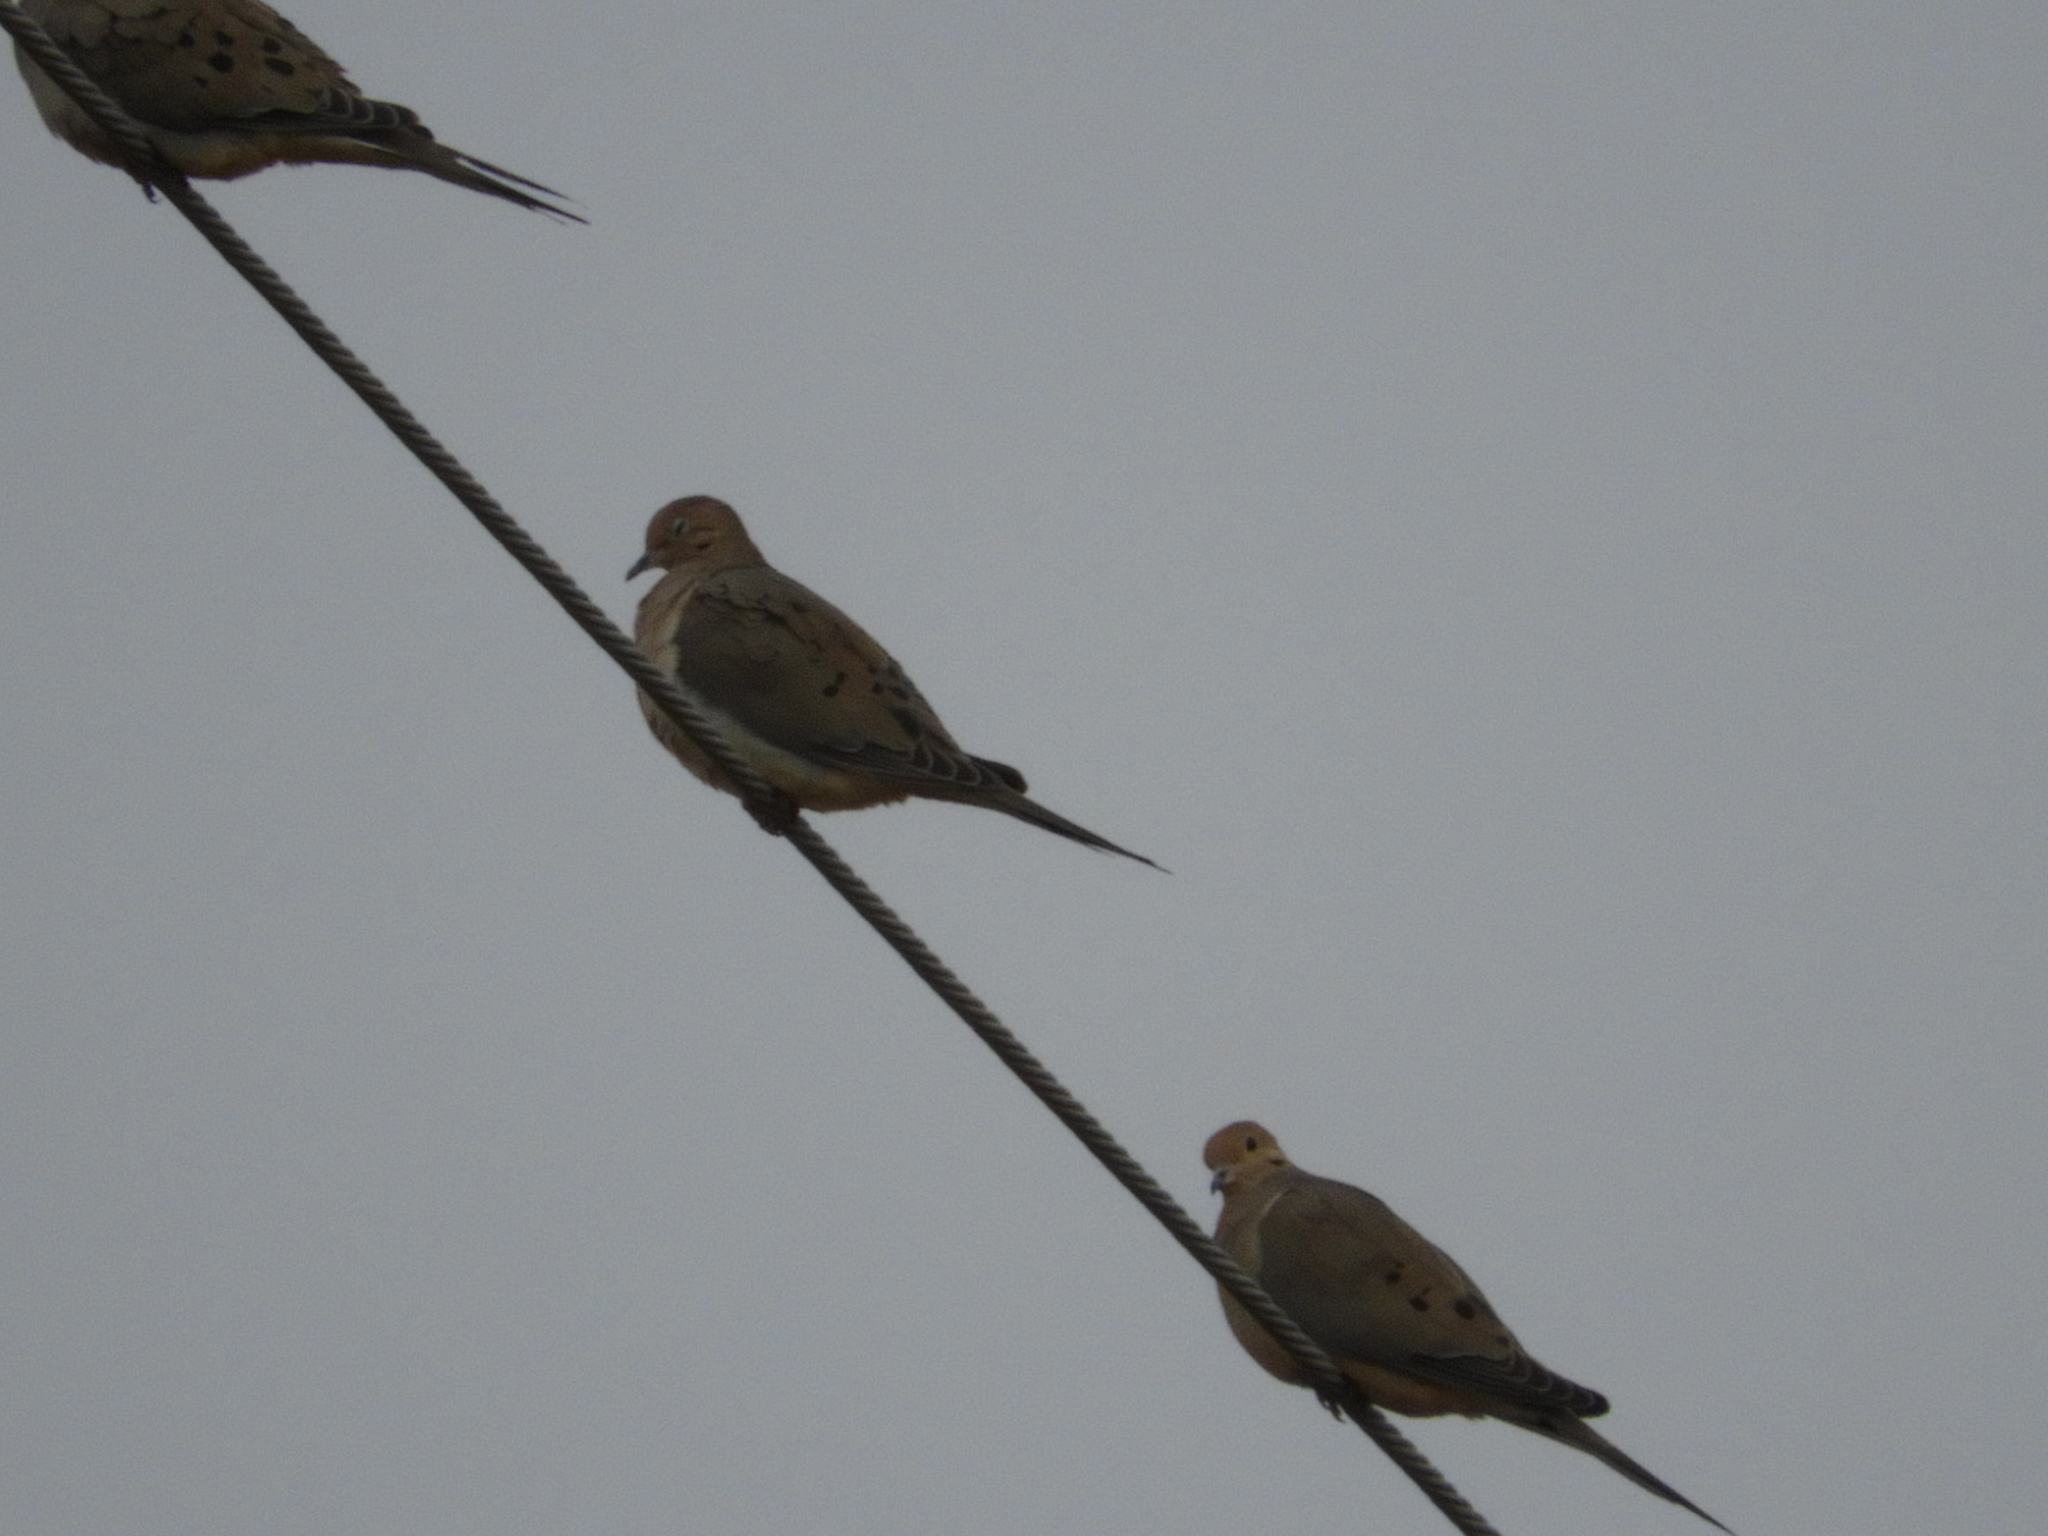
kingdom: Animalia
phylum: Chordata
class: Aves
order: Columbiformes
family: Columbidae
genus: Zenaida
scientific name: Zenaida macroura
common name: Mourning dove
